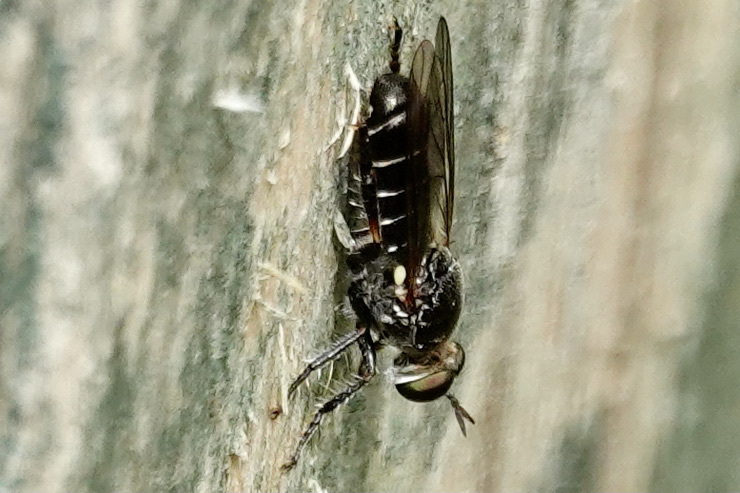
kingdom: Animalia
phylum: Arthropoda
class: Insecta
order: Diptera
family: Asilidae
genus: Atomosia
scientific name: Atomosia puella
